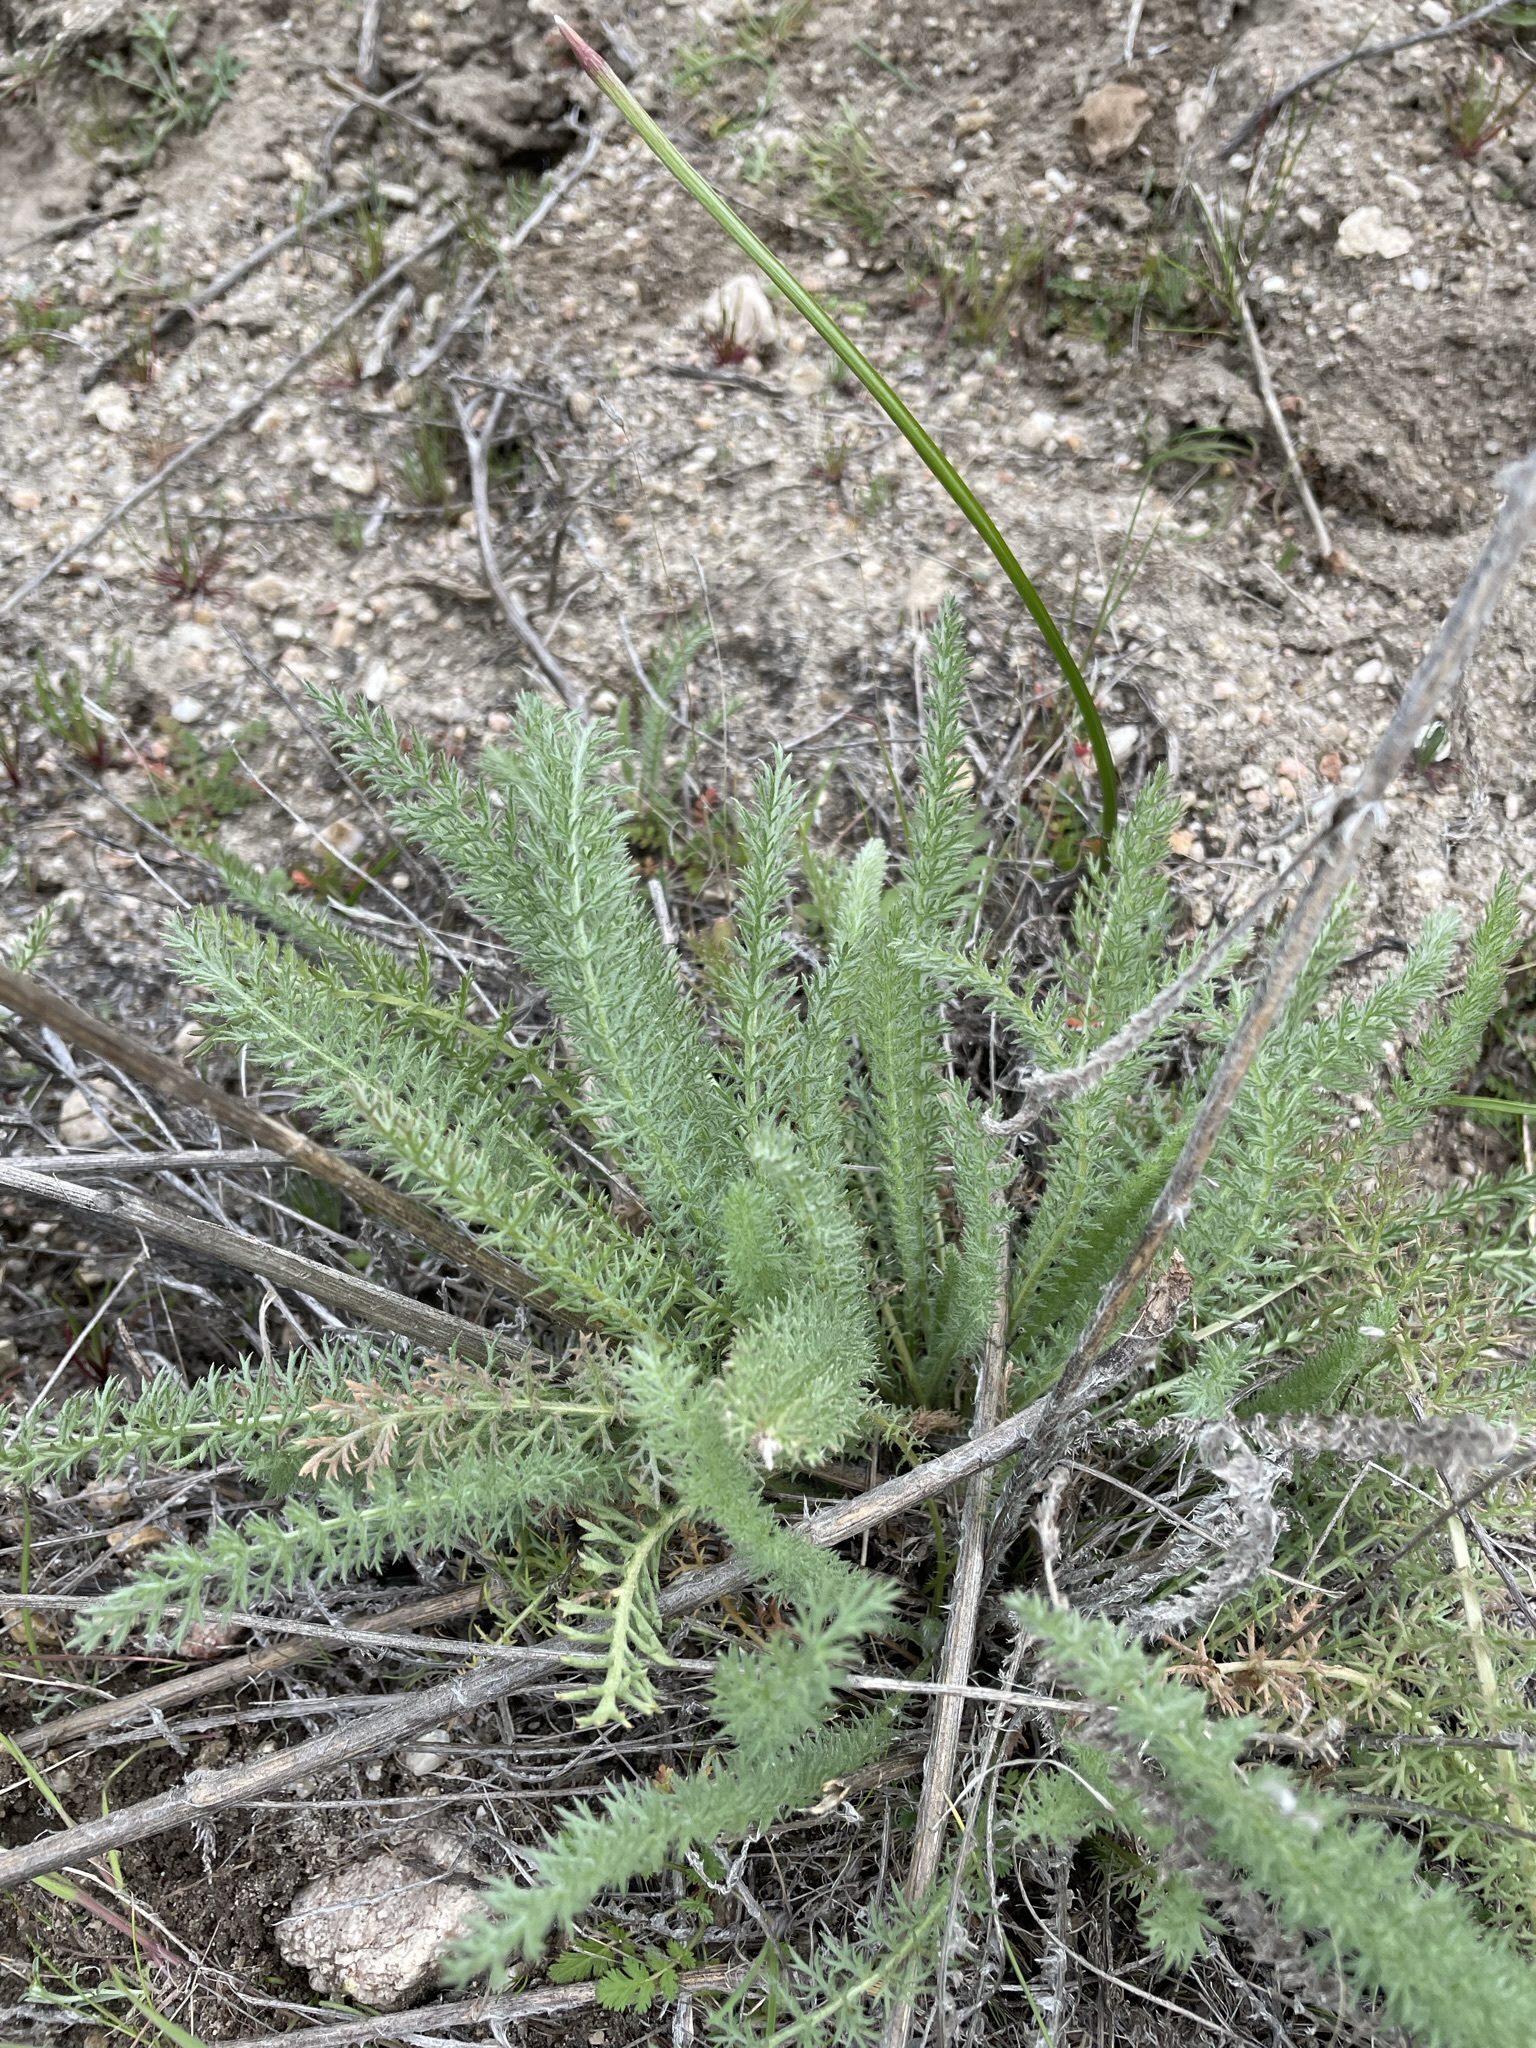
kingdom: Plantae
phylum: Tracheophyta
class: Magnoliopsida
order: Asterales
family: Asteraceae
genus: Achillea
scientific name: Achillea millefolium
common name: Yarrow
